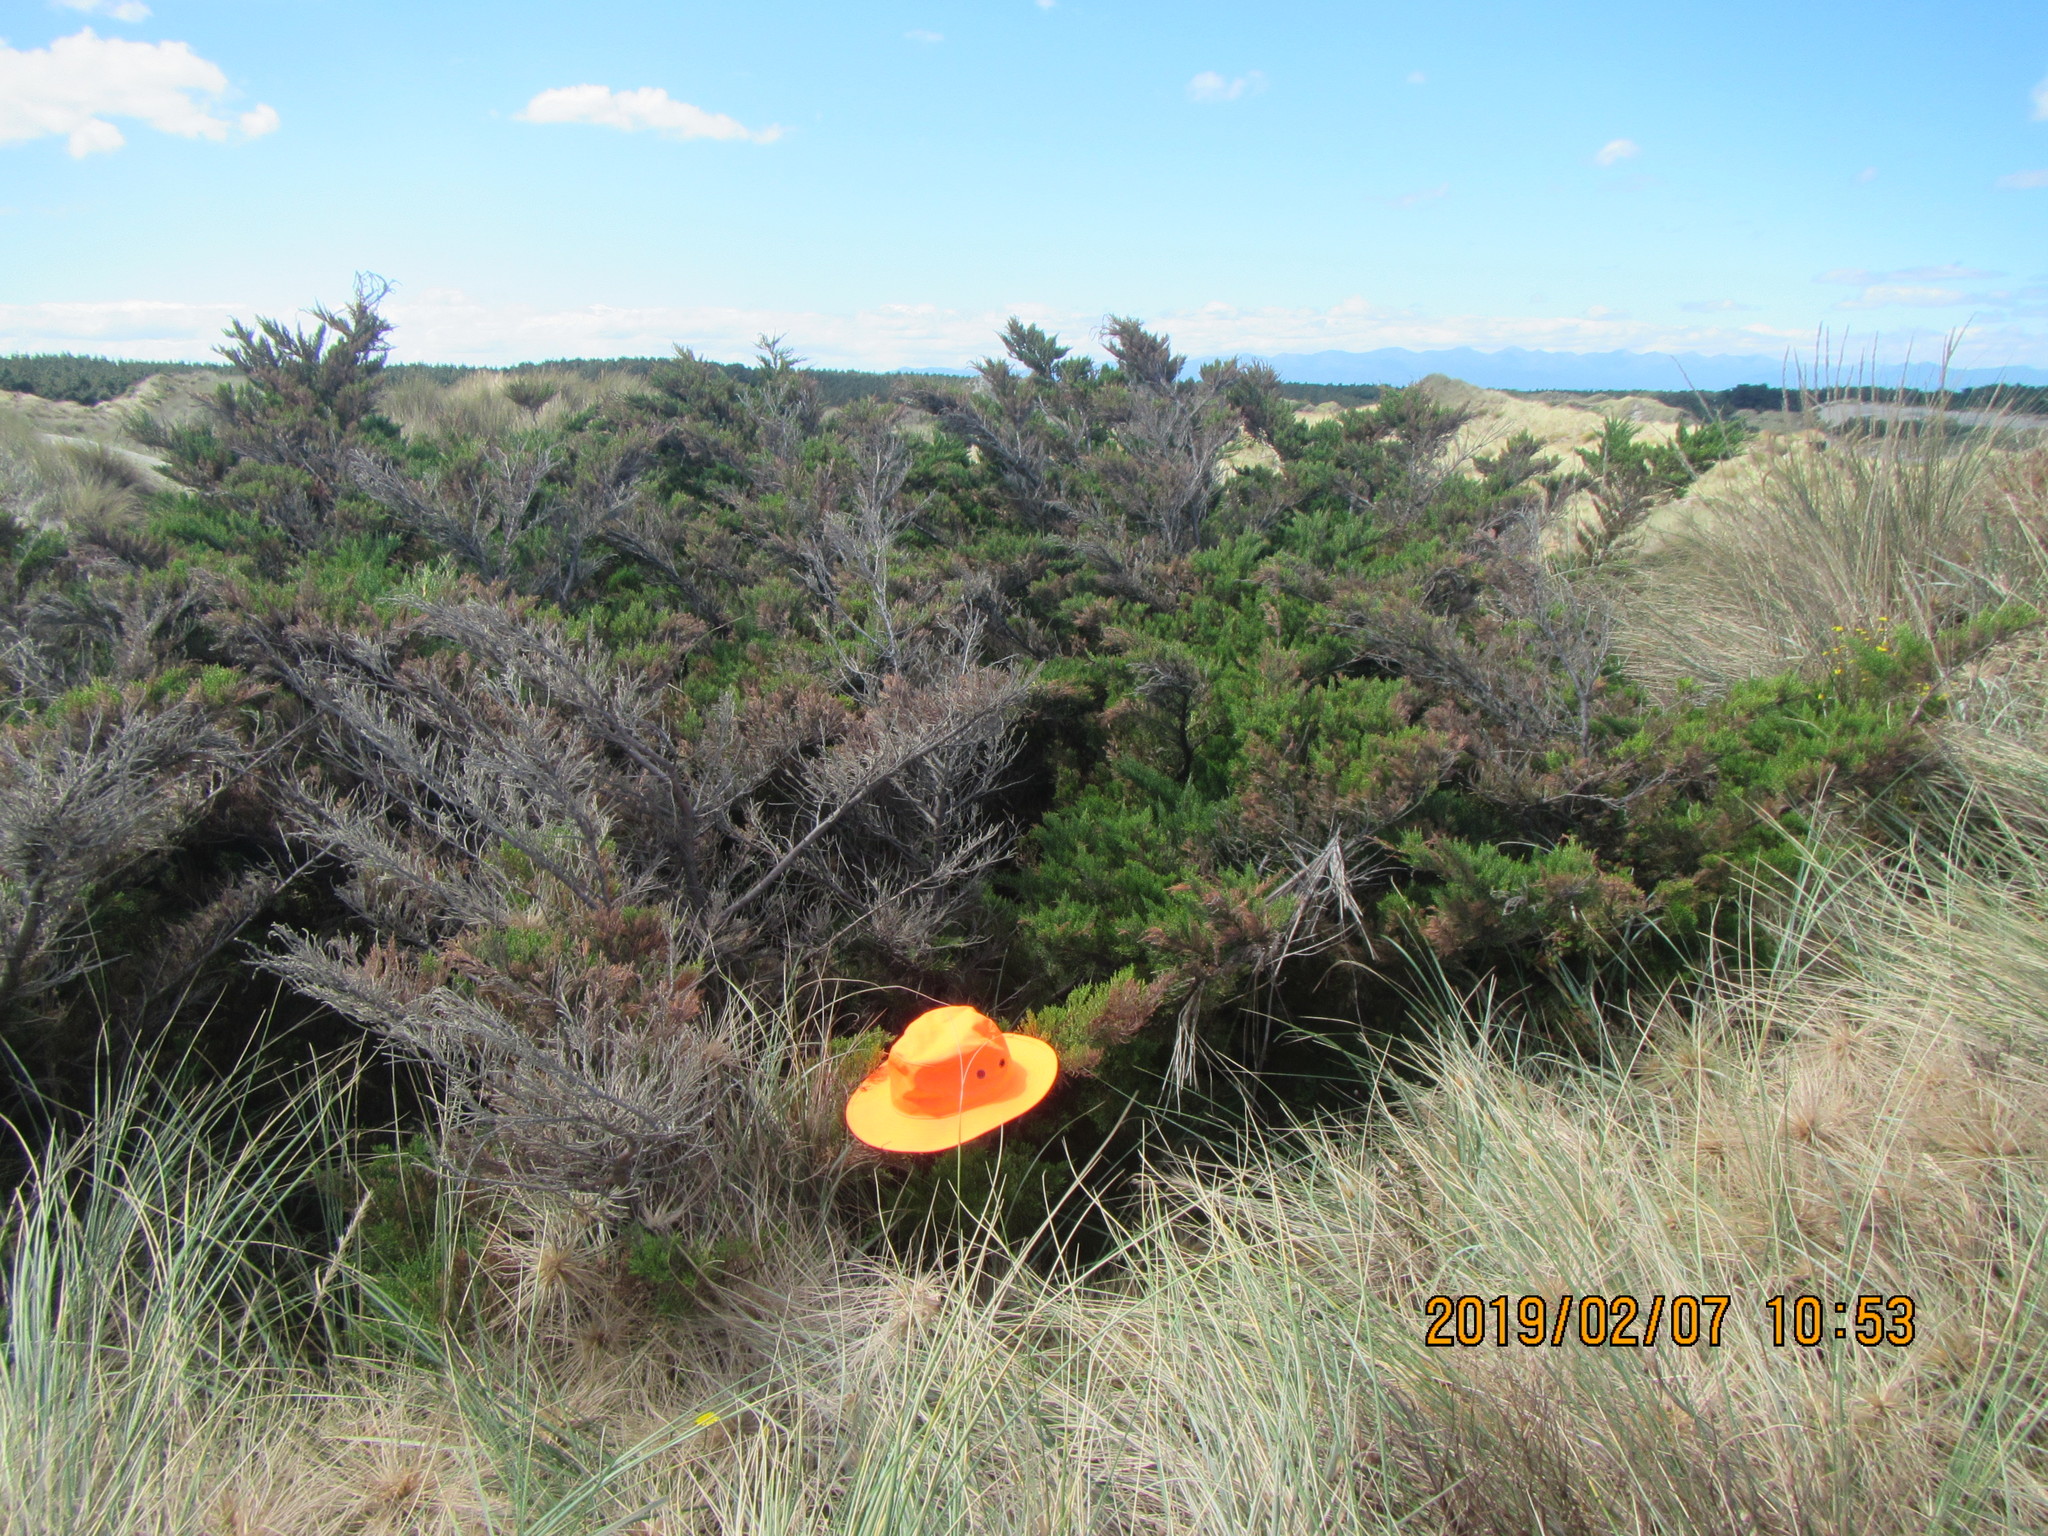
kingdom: Plantae
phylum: Tracheophyta
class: Magnoliopsida
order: Caryophyllales
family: Aizoaceae
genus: Tetragonia
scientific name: Tetragonia implexicoma
